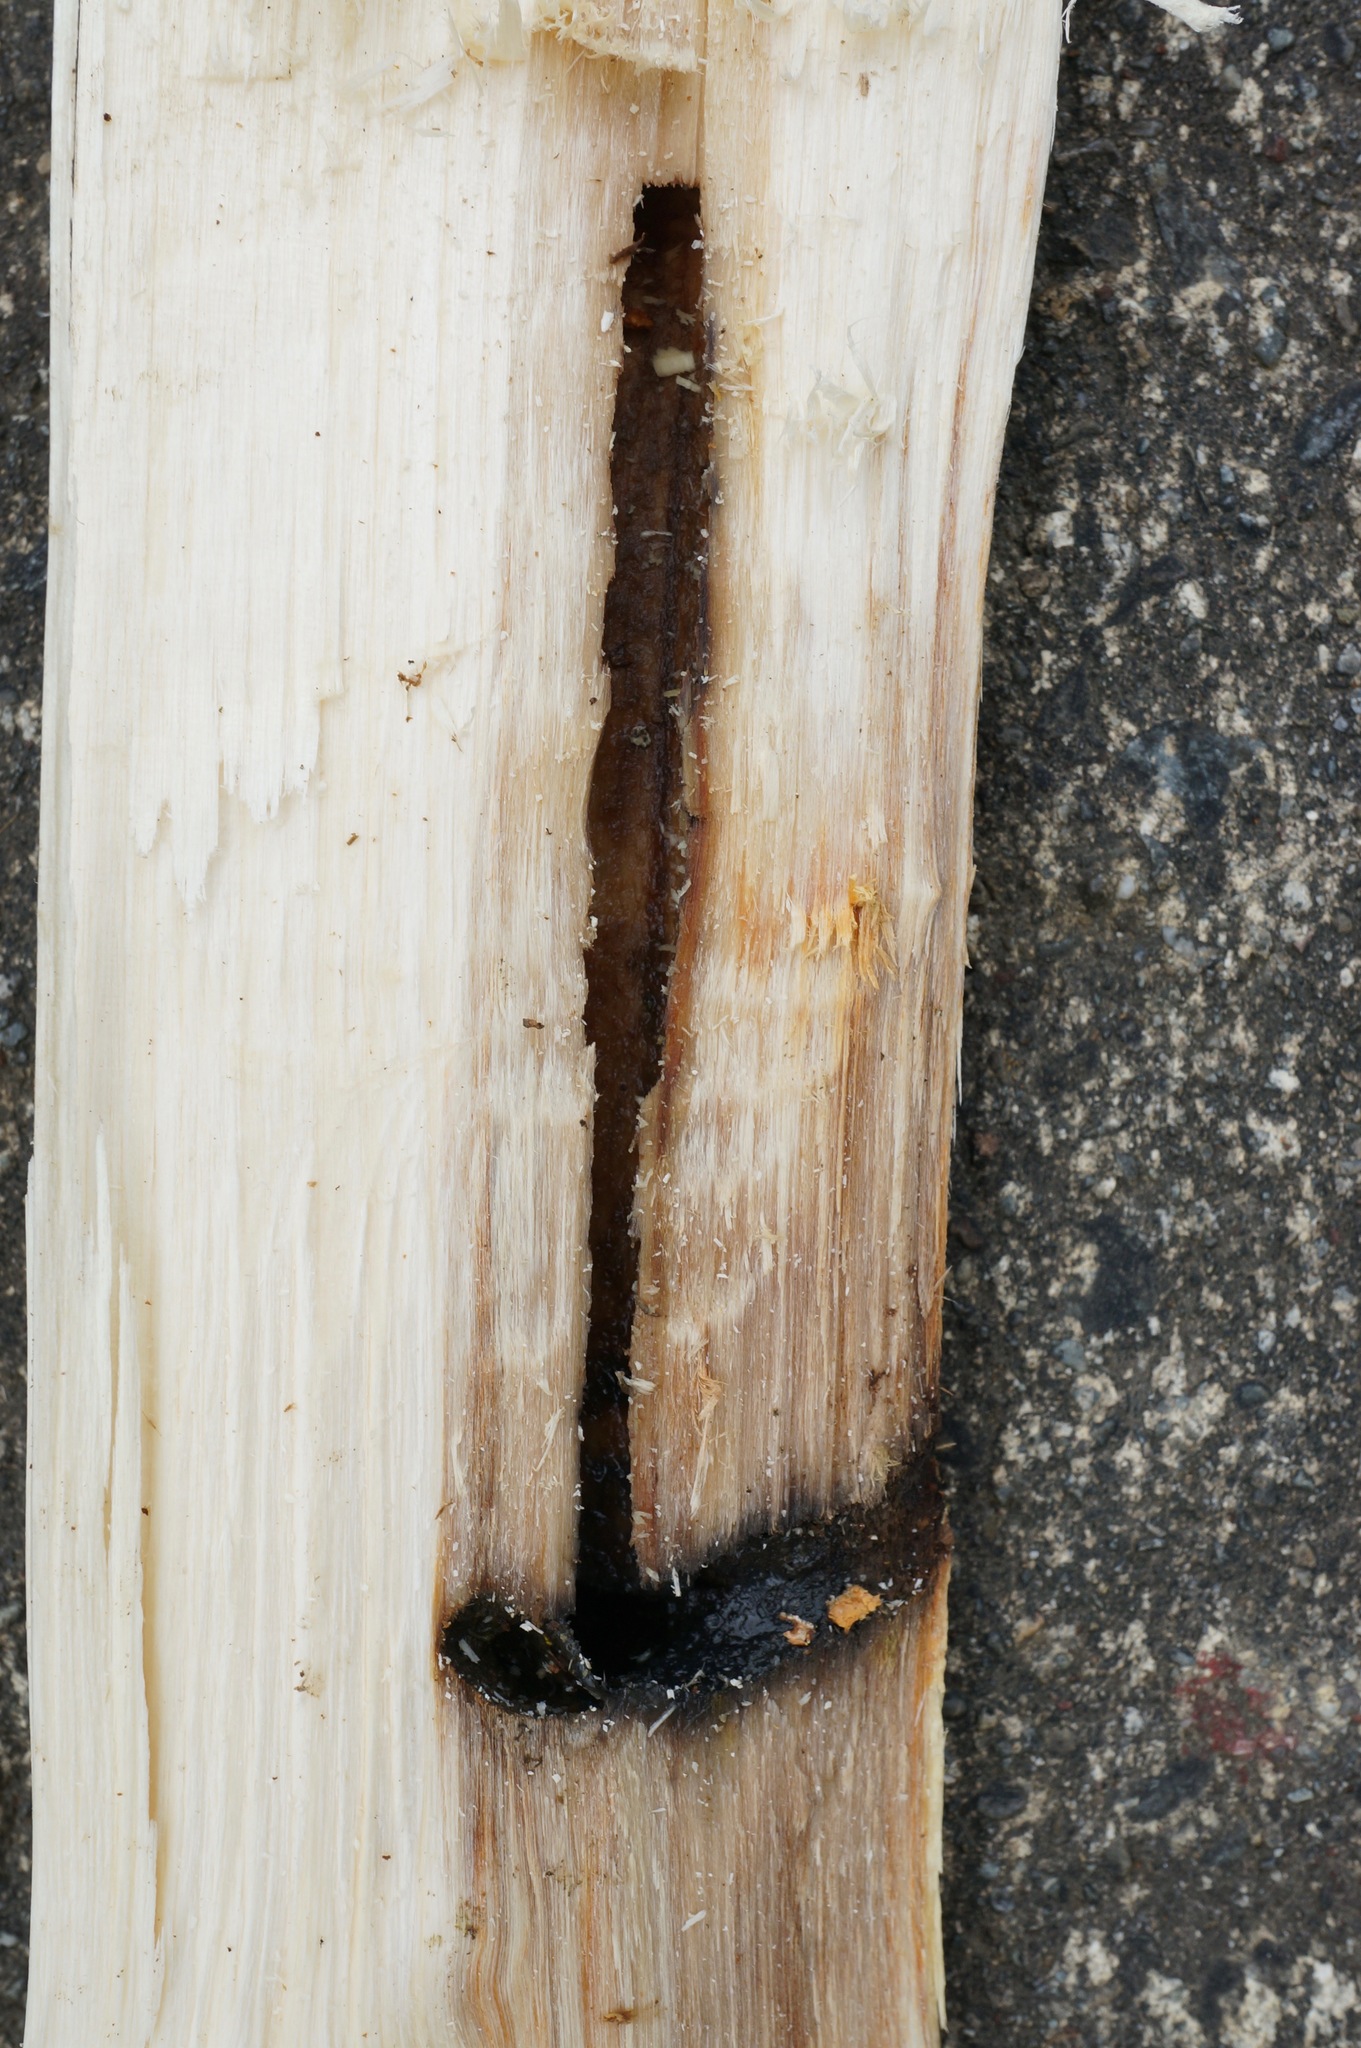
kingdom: Animalia
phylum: Arthropoda
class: Insecta
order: Lepidoptera
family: Hepialidae
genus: Aenetus
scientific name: Aenetus virescens
